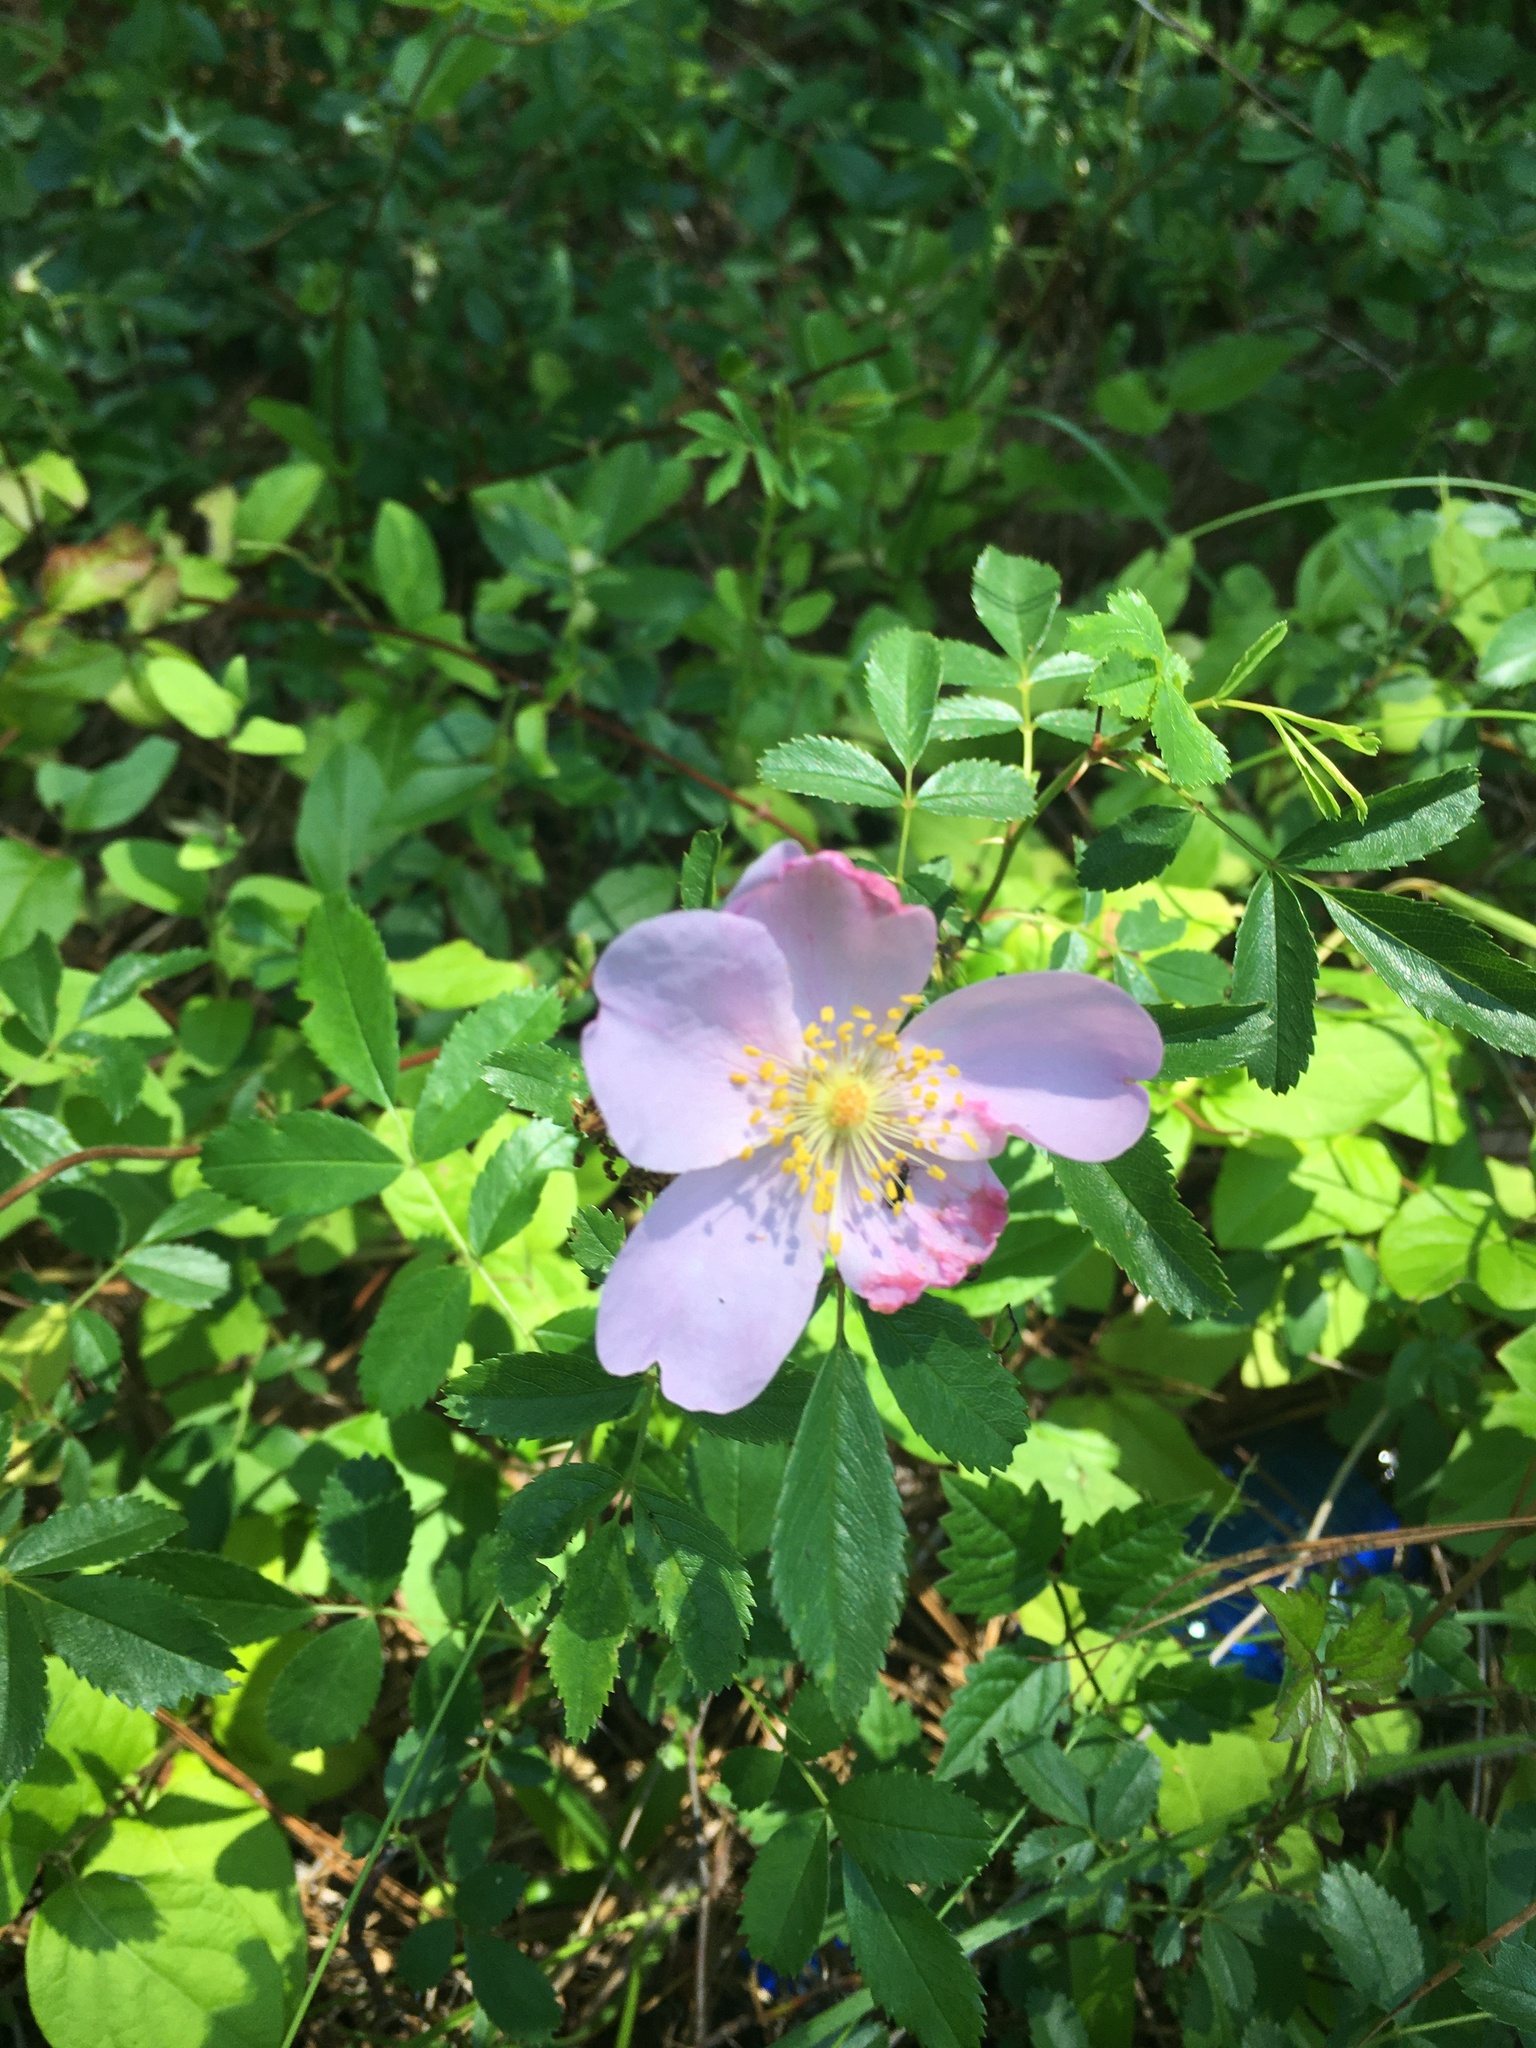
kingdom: Plantae
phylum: Tracheophyta
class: Magnoliopsida
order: Rosales
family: Rosaceae
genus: Rosa
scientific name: Rosa carolina
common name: Pasture rose
